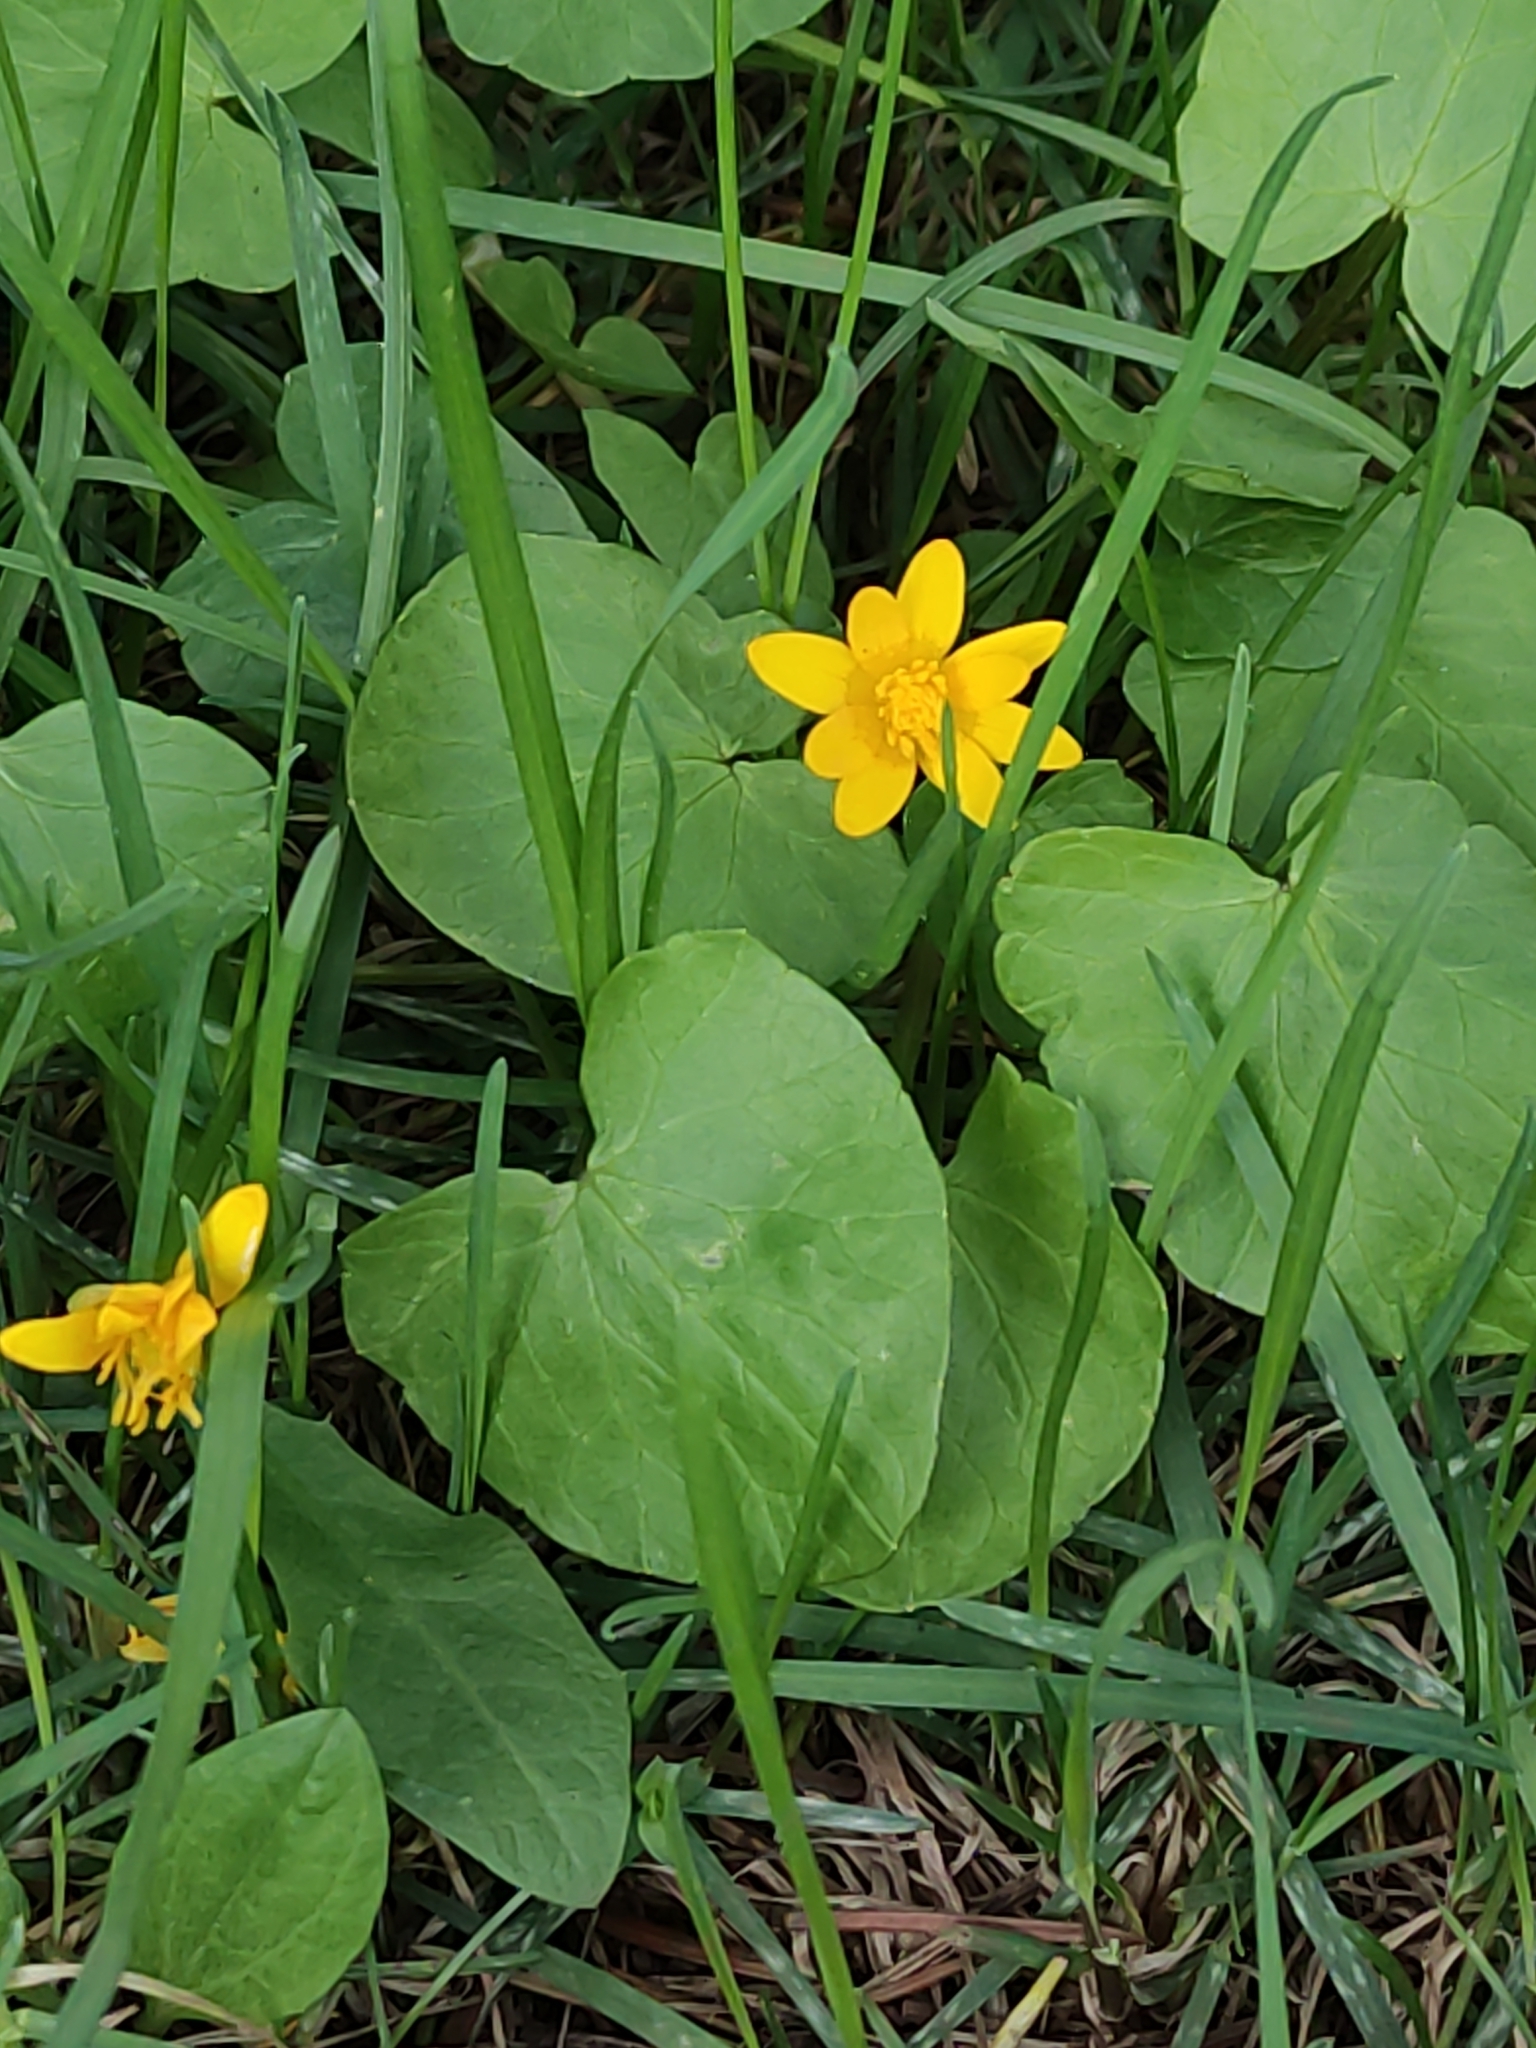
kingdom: Plantae
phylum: Tracheophyta
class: Magnoliopsida
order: Ranunculales
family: Ranunculaceae
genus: Ficaria
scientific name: Ficaria verna
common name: Lesser celandine
